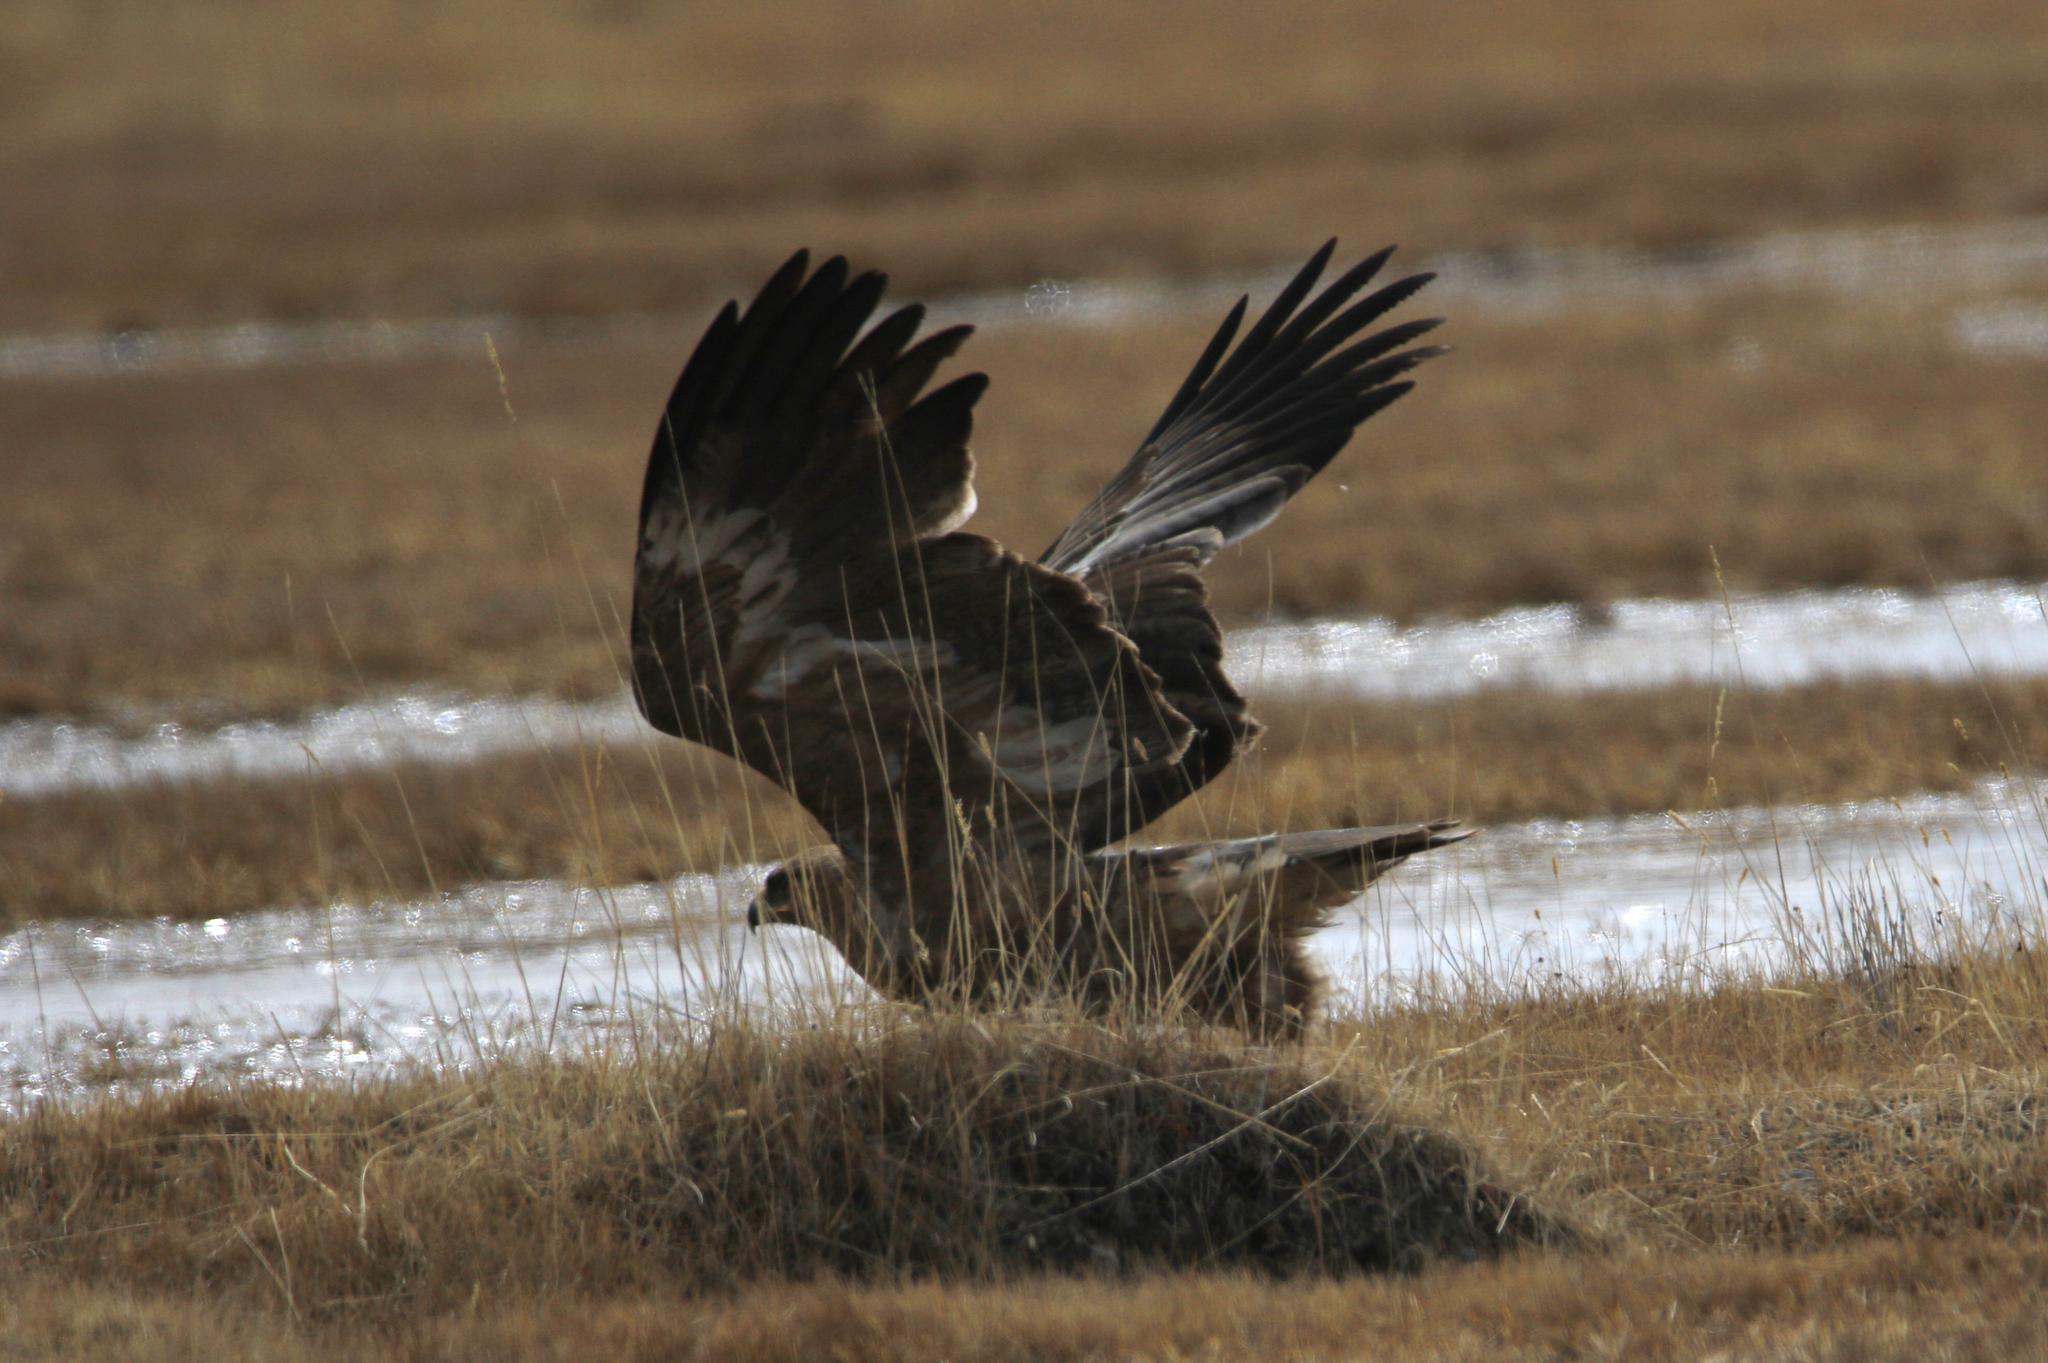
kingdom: Animalia
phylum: Chordata
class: Aves
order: Accipitriformes
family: Accipitridae
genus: Aquila
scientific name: Aquila nipalensis
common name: Steppe eagle
